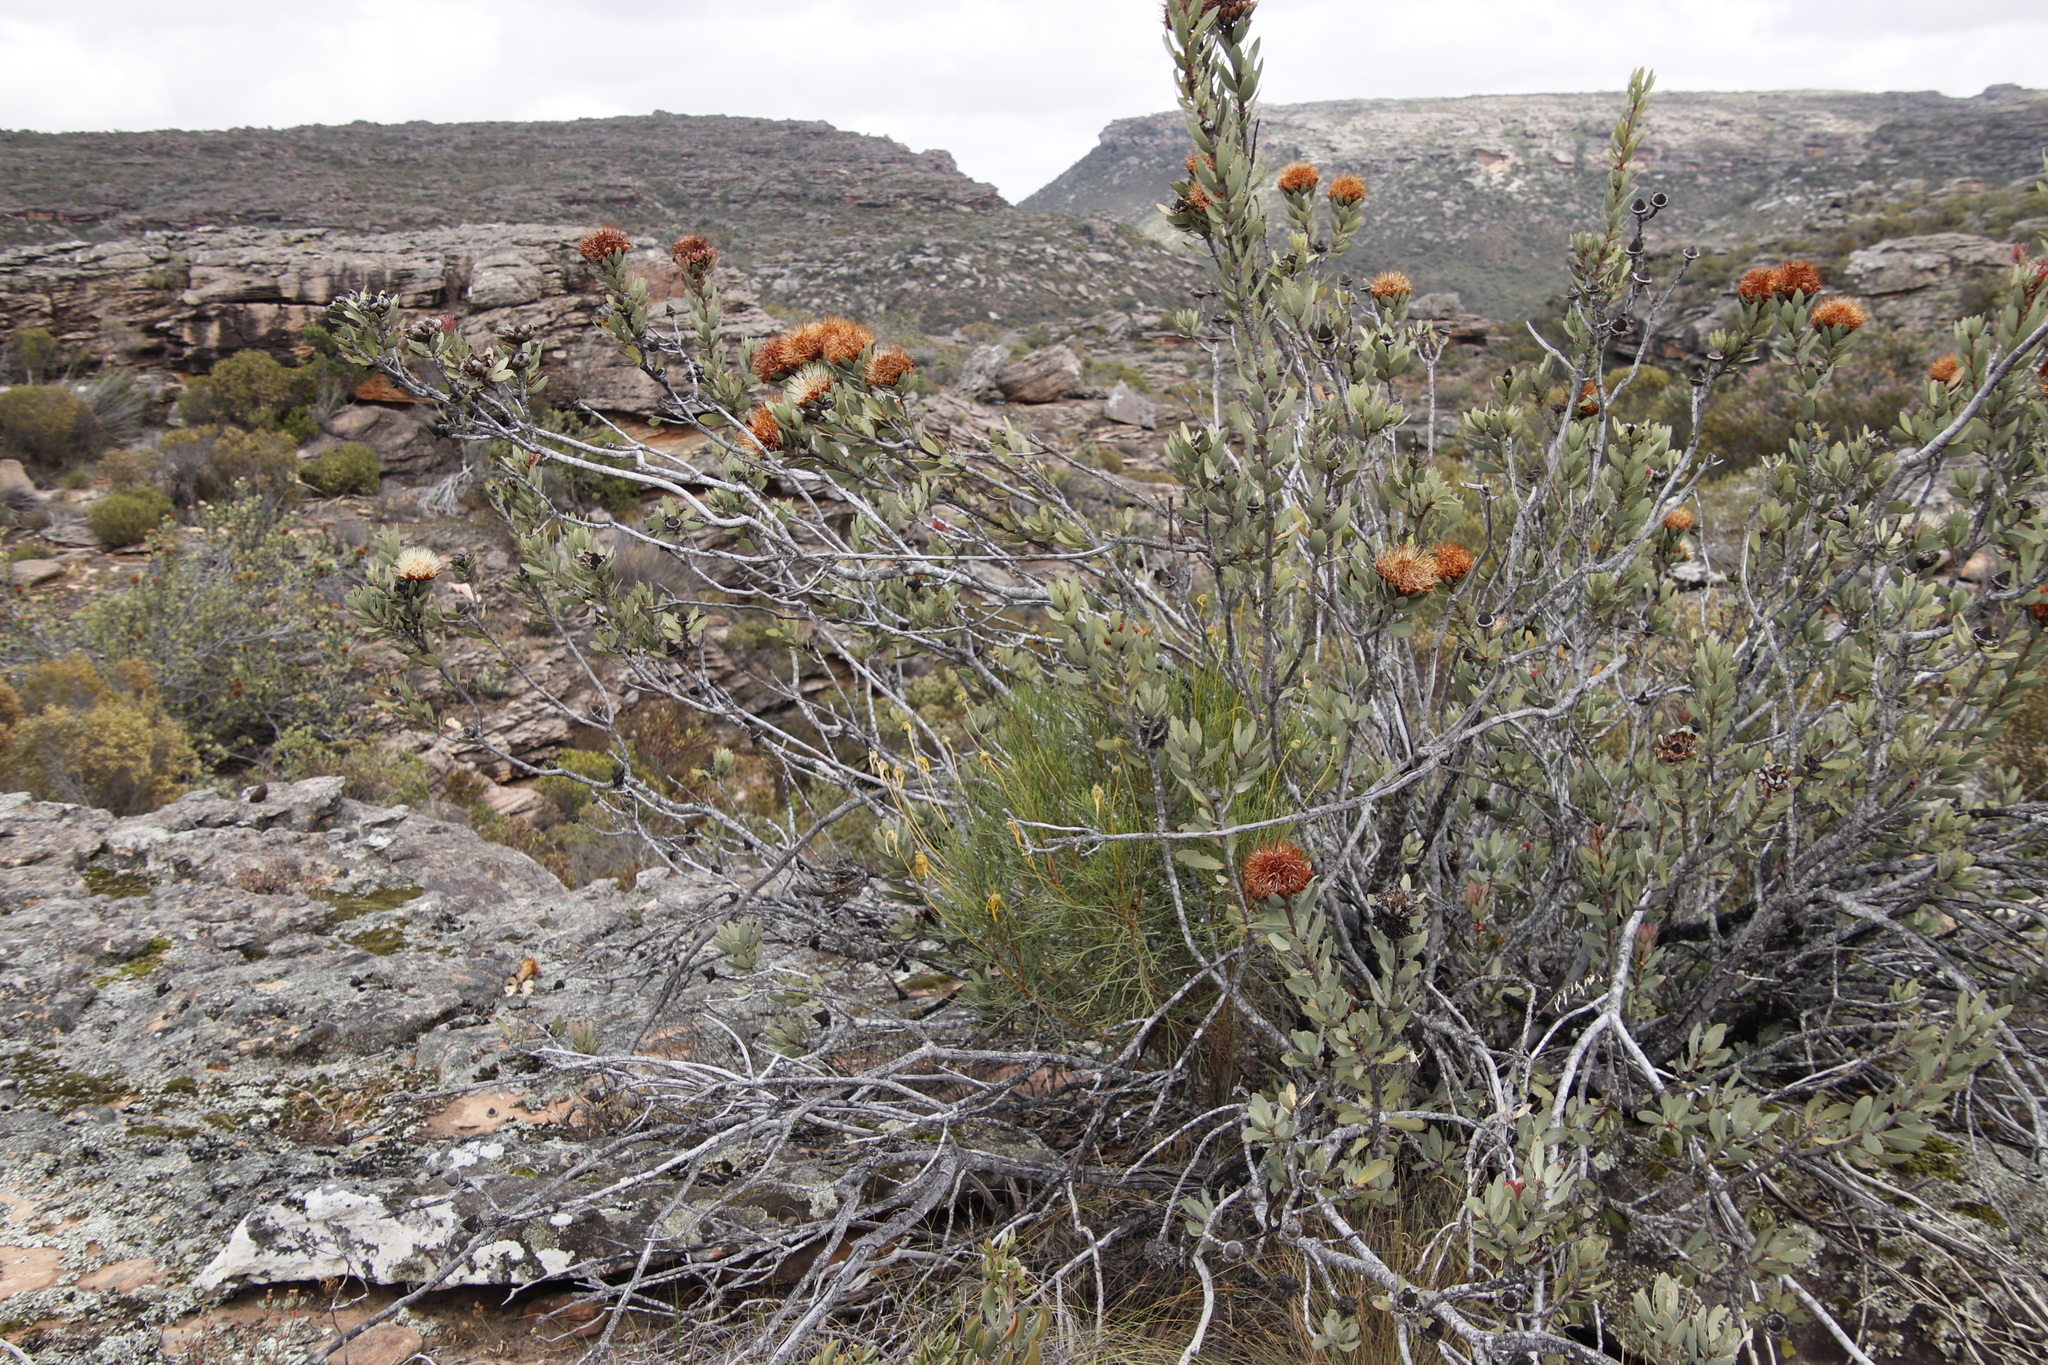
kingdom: Plantae
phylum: Tracheophyta
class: Magnoliopsida
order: Proteales
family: Proteaceae
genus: Protea
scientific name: Protea glabra
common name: Chestnut sugarbush
